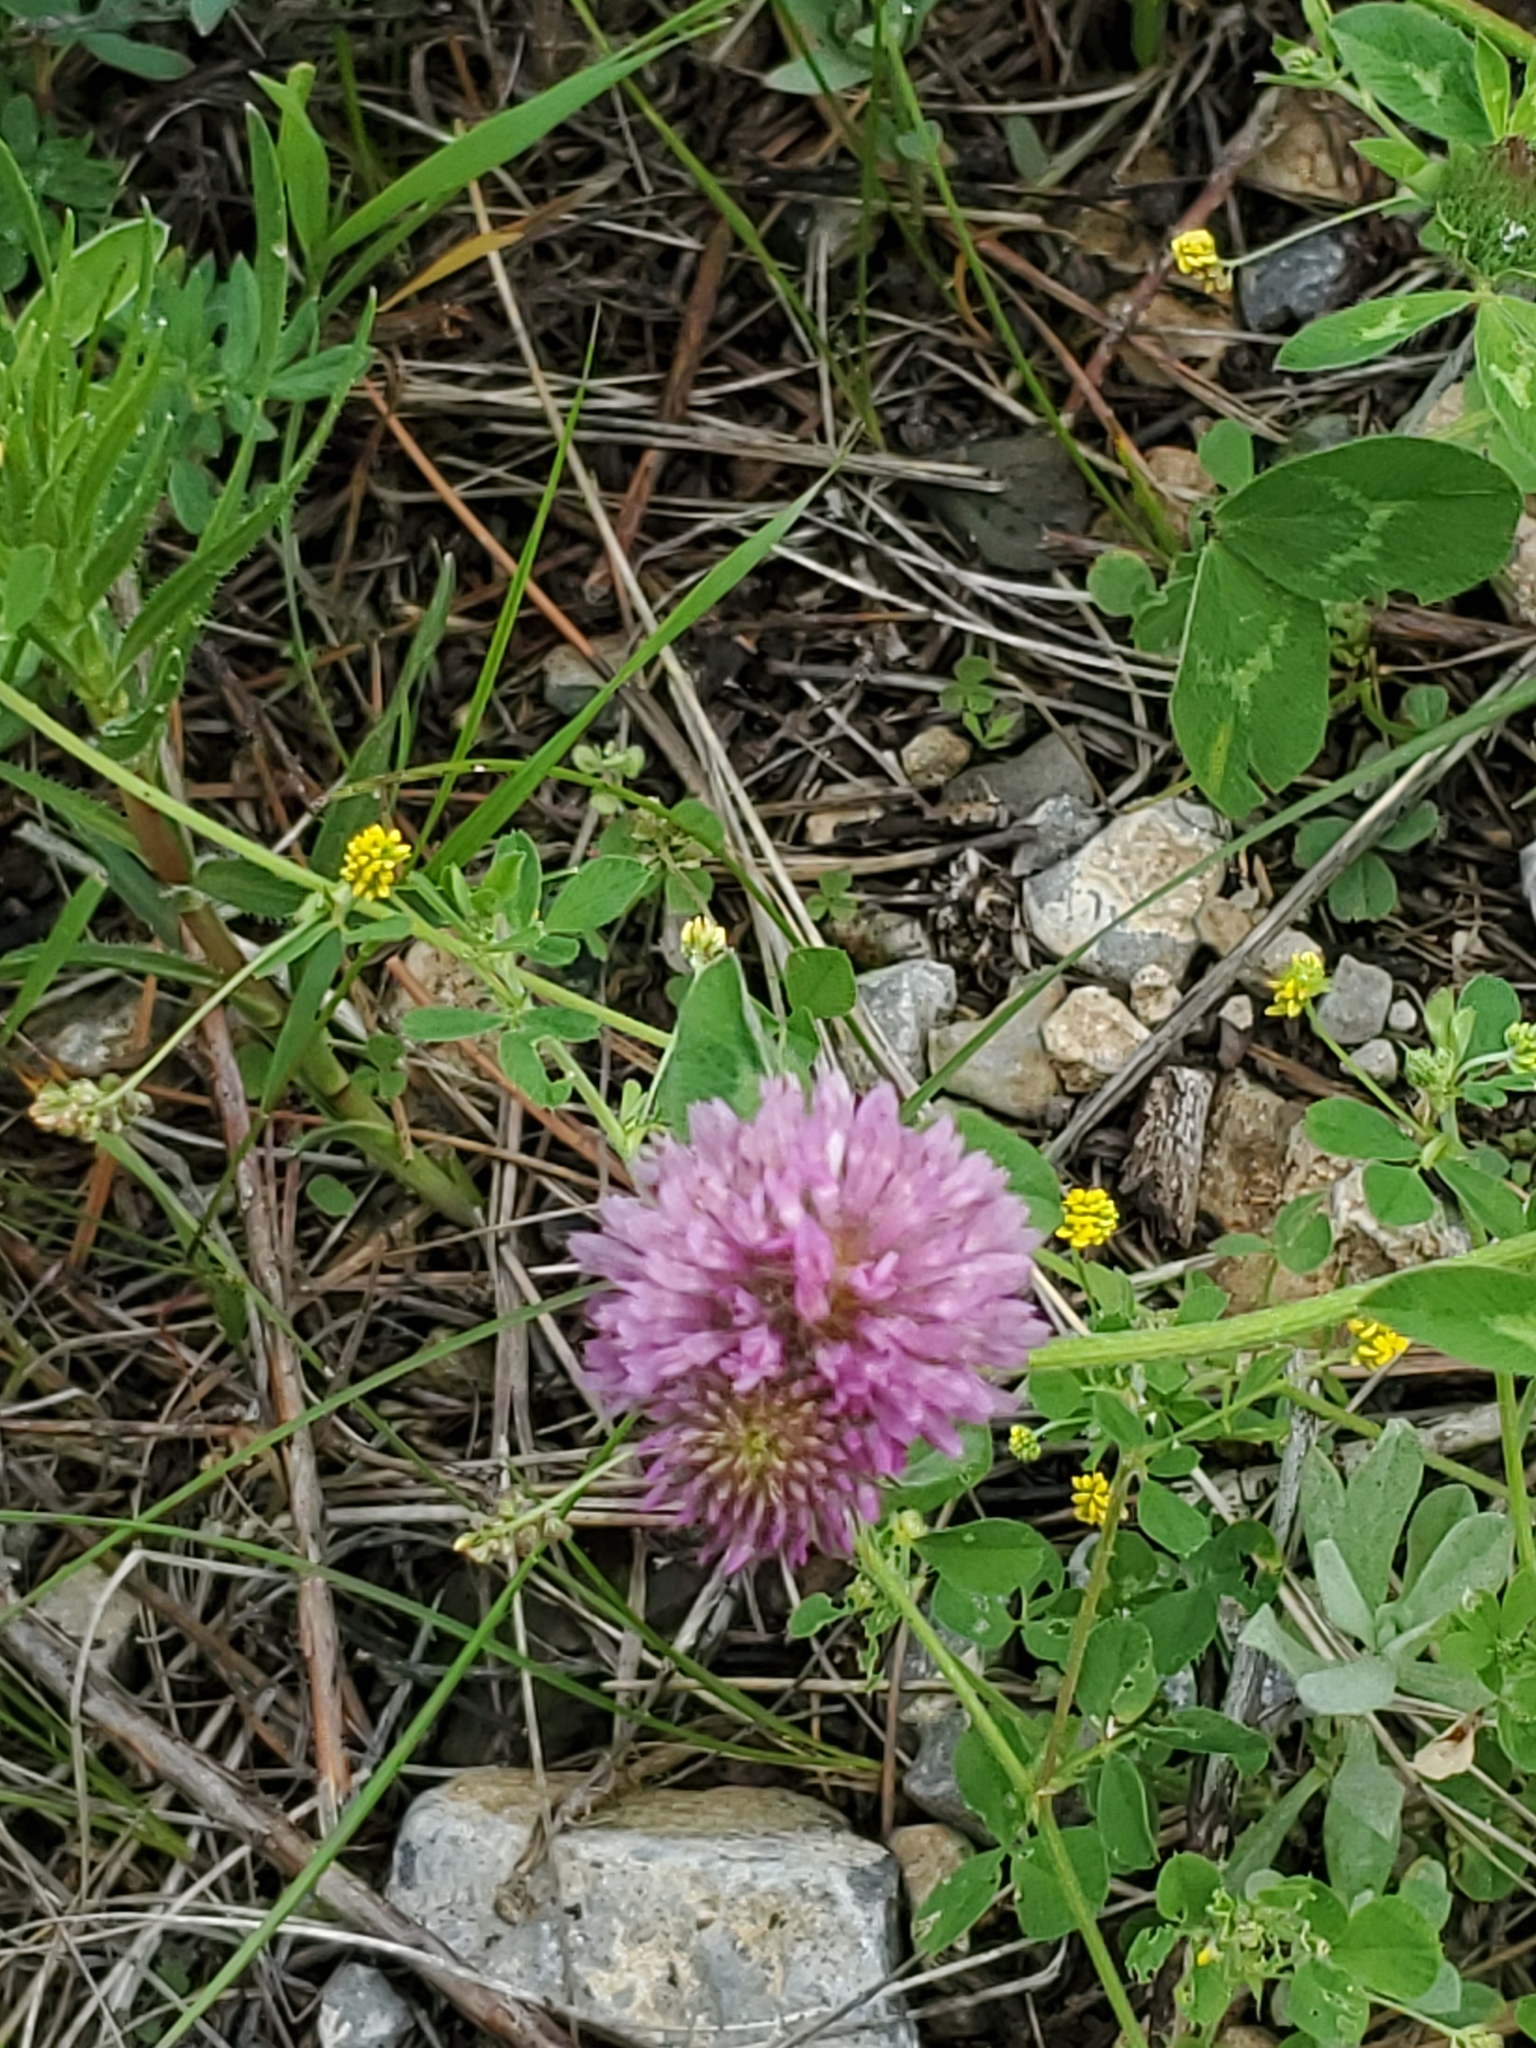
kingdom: Plantae
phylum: Tracheophyta
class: Magnoliopsida
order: Fabales
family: Fabaceae
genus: Trifolium
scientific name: Trifolium pratense
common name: Red clover
